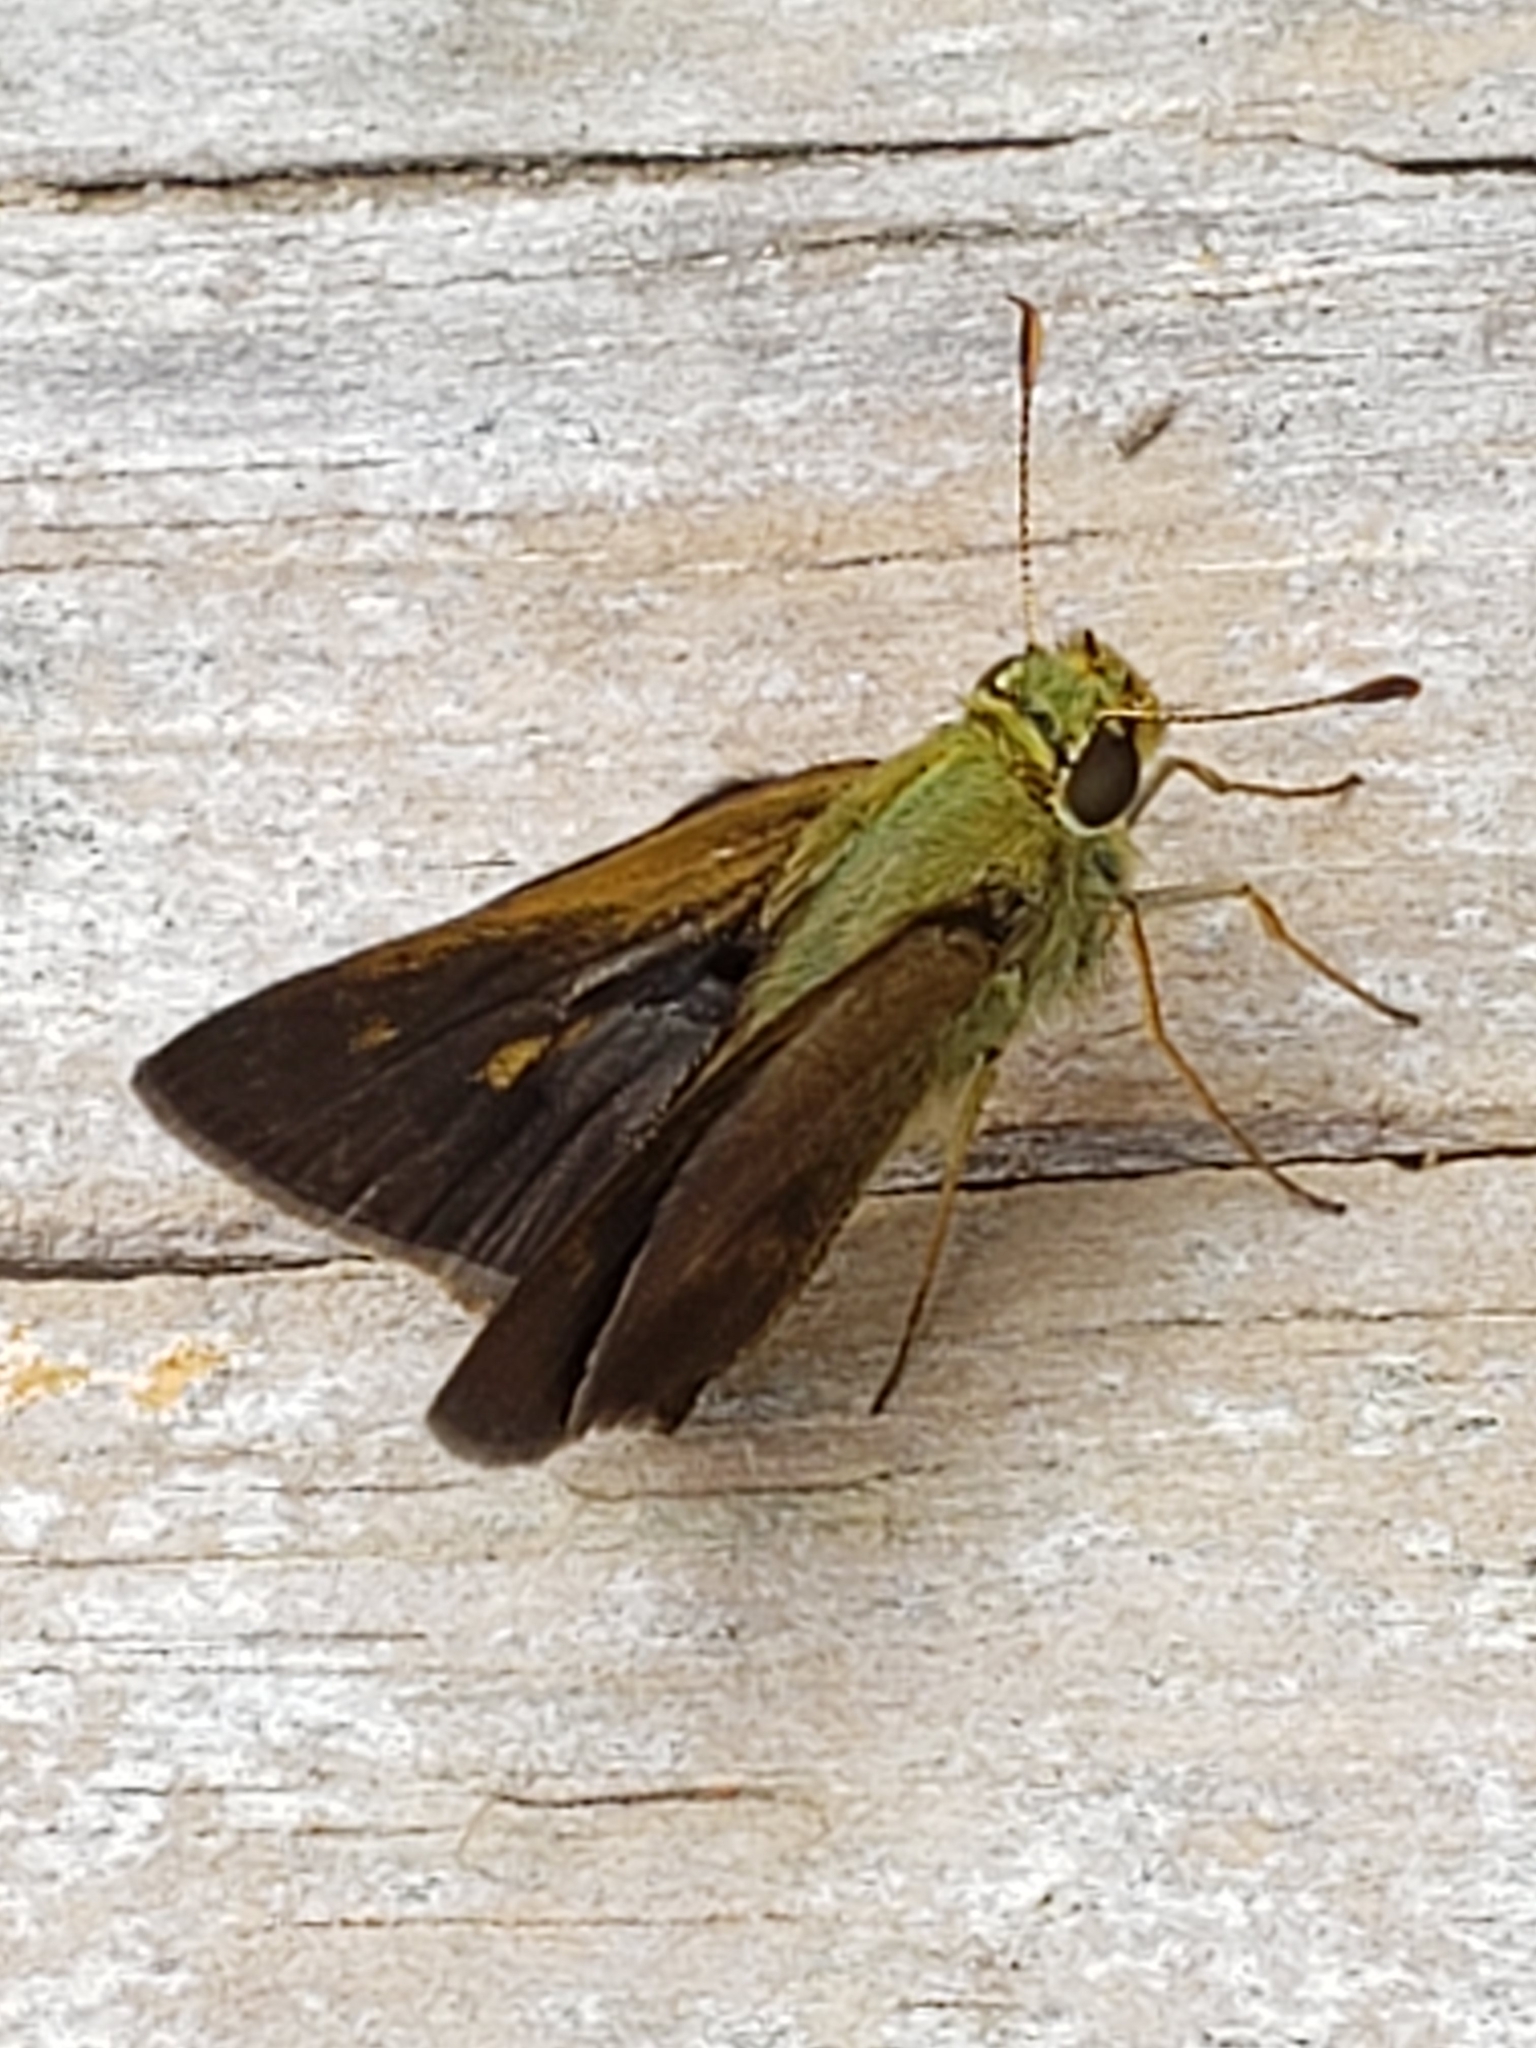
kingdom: Animalia
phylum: Arthropoda
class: Insecta
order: Lepidoptera
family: Hesperiidae
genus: Polites
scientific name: Polites egeremet
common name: Northern broken-dash
